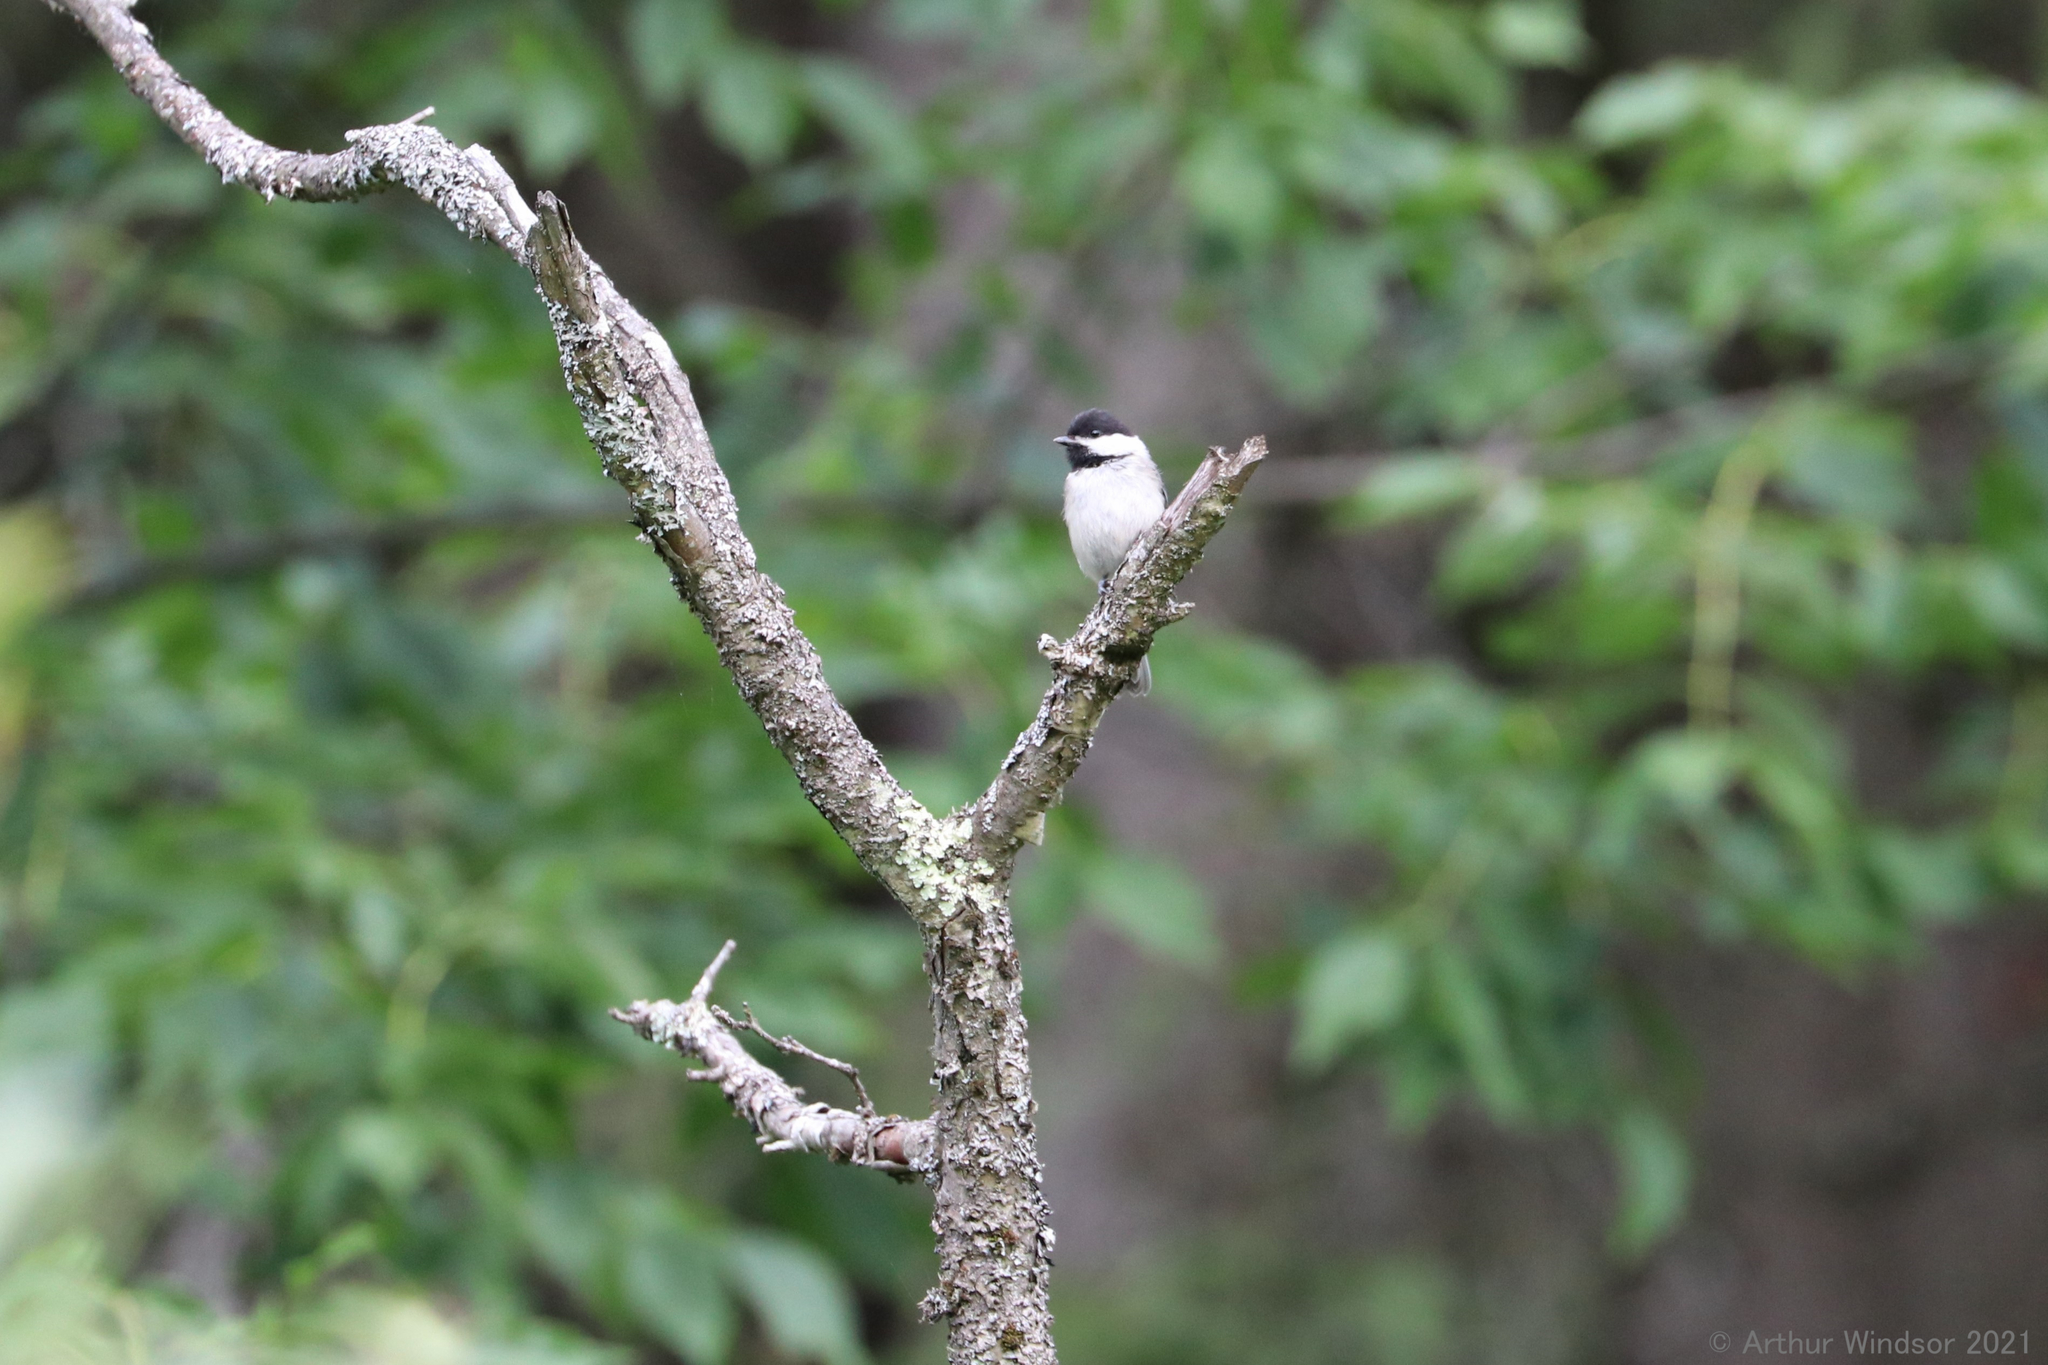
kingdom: Animalia
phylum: Chordata
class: Aves
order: Passeriformes
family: Paridae
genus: Poecile
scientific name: Poecile atricapillus
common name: Black-capped chickadee
